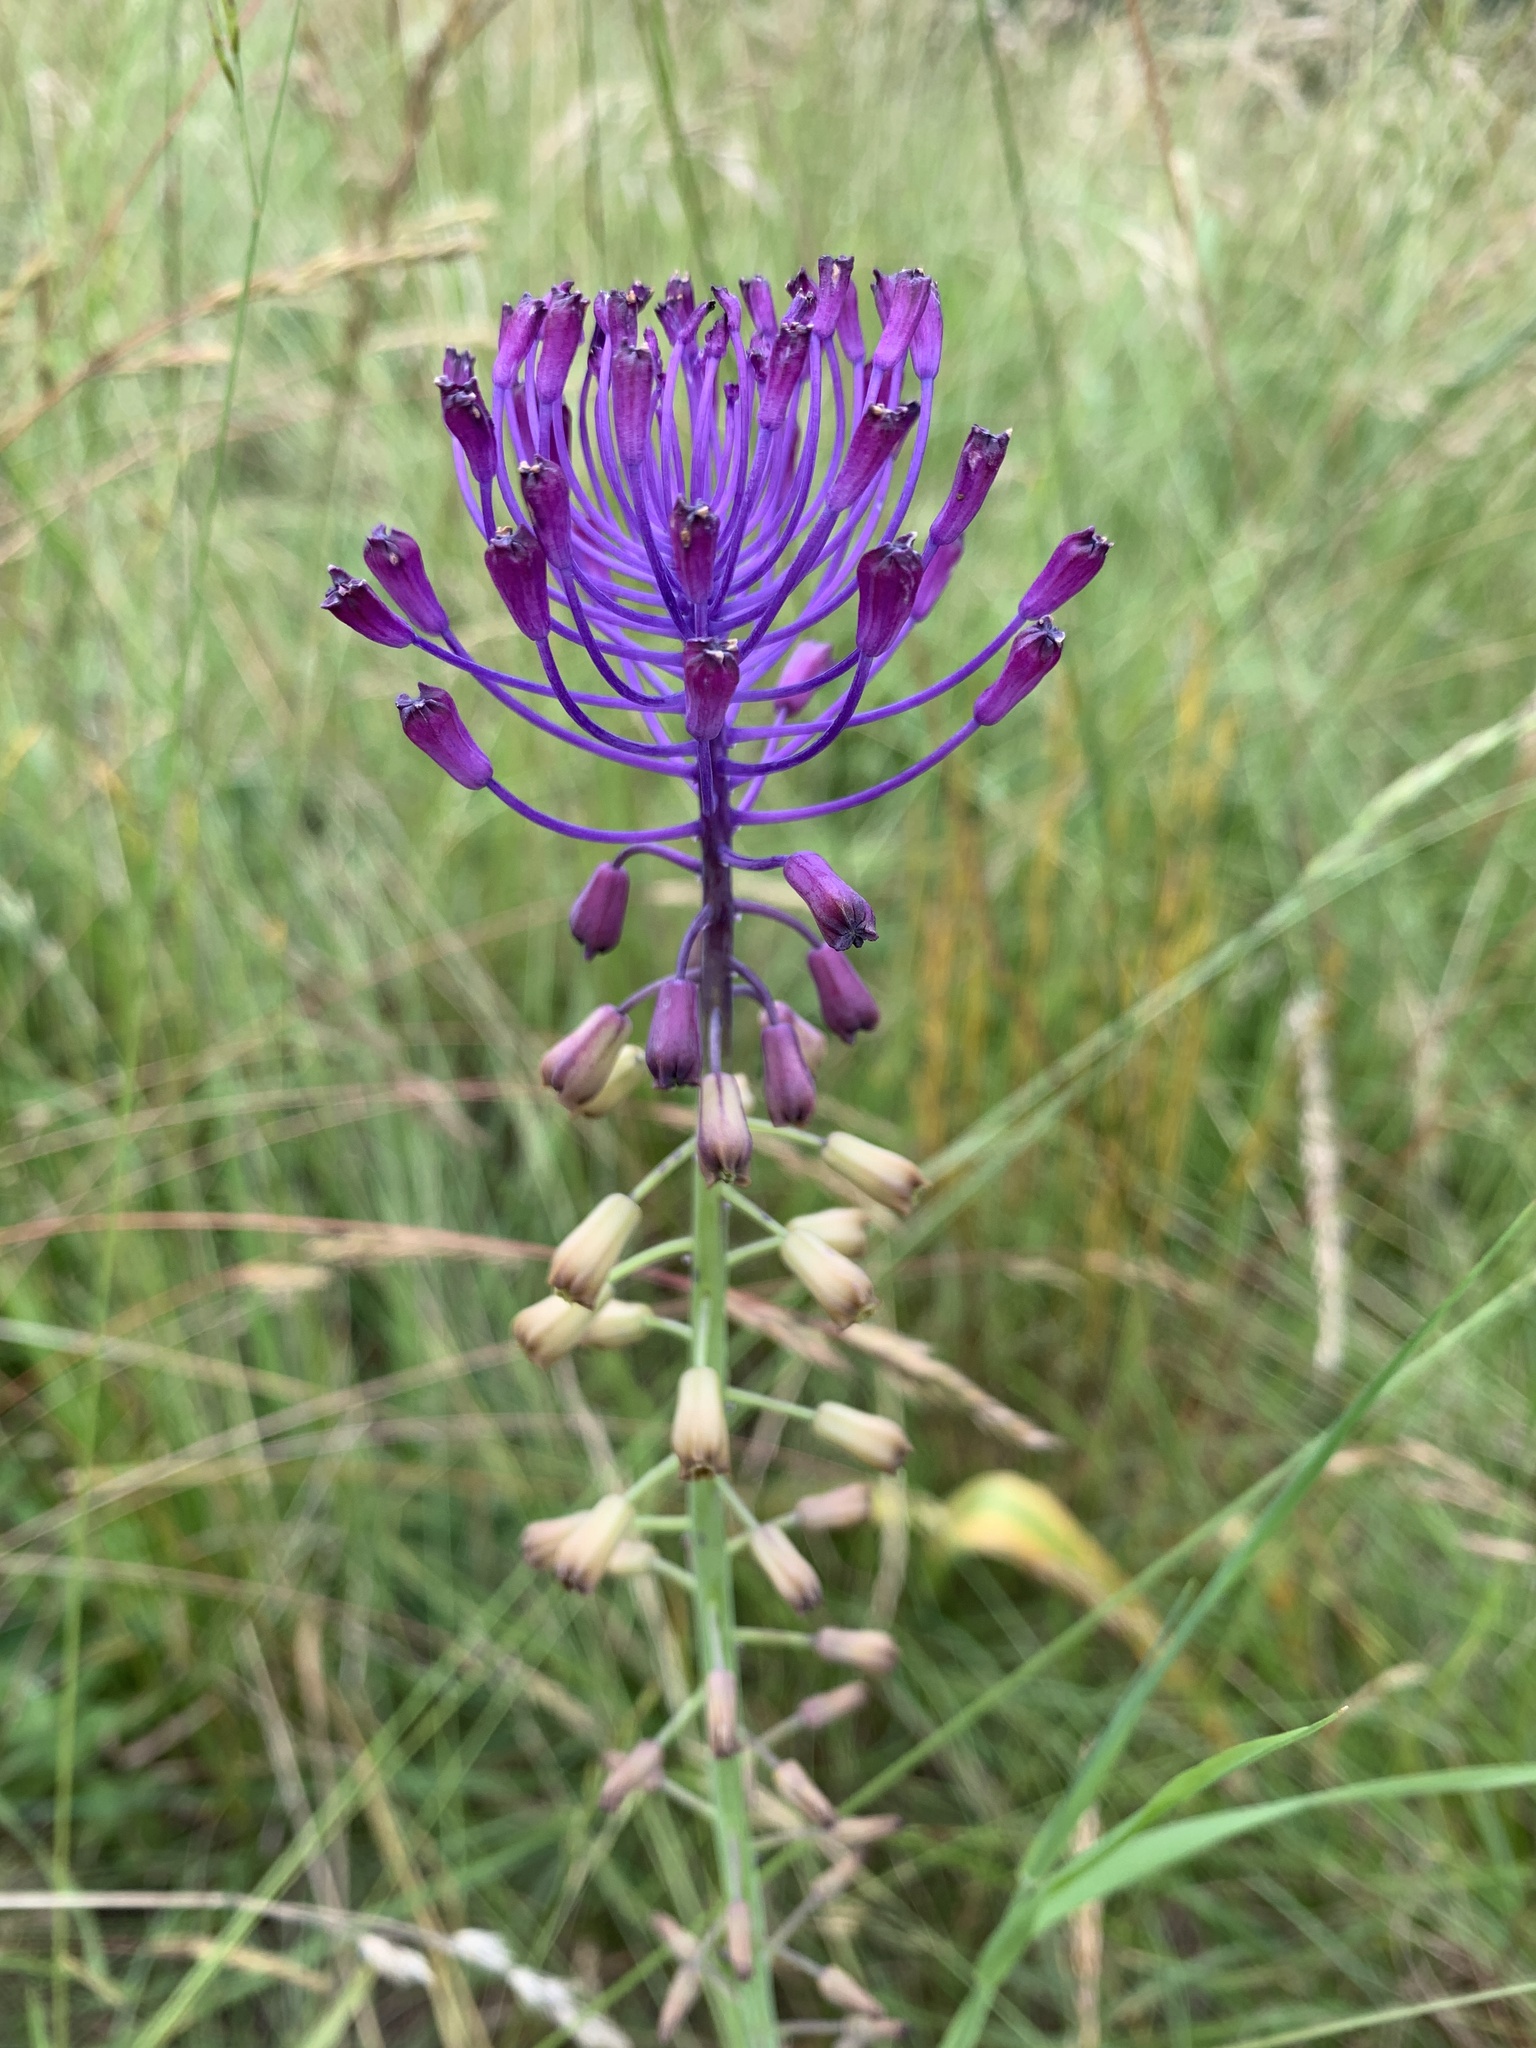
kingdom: Plantae
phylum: Tracheophyta
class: Liliopsida
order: Asparagales
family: Asparagaceae
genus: Muscari
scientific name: Muscari comosum
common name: Tassel hyacinth
